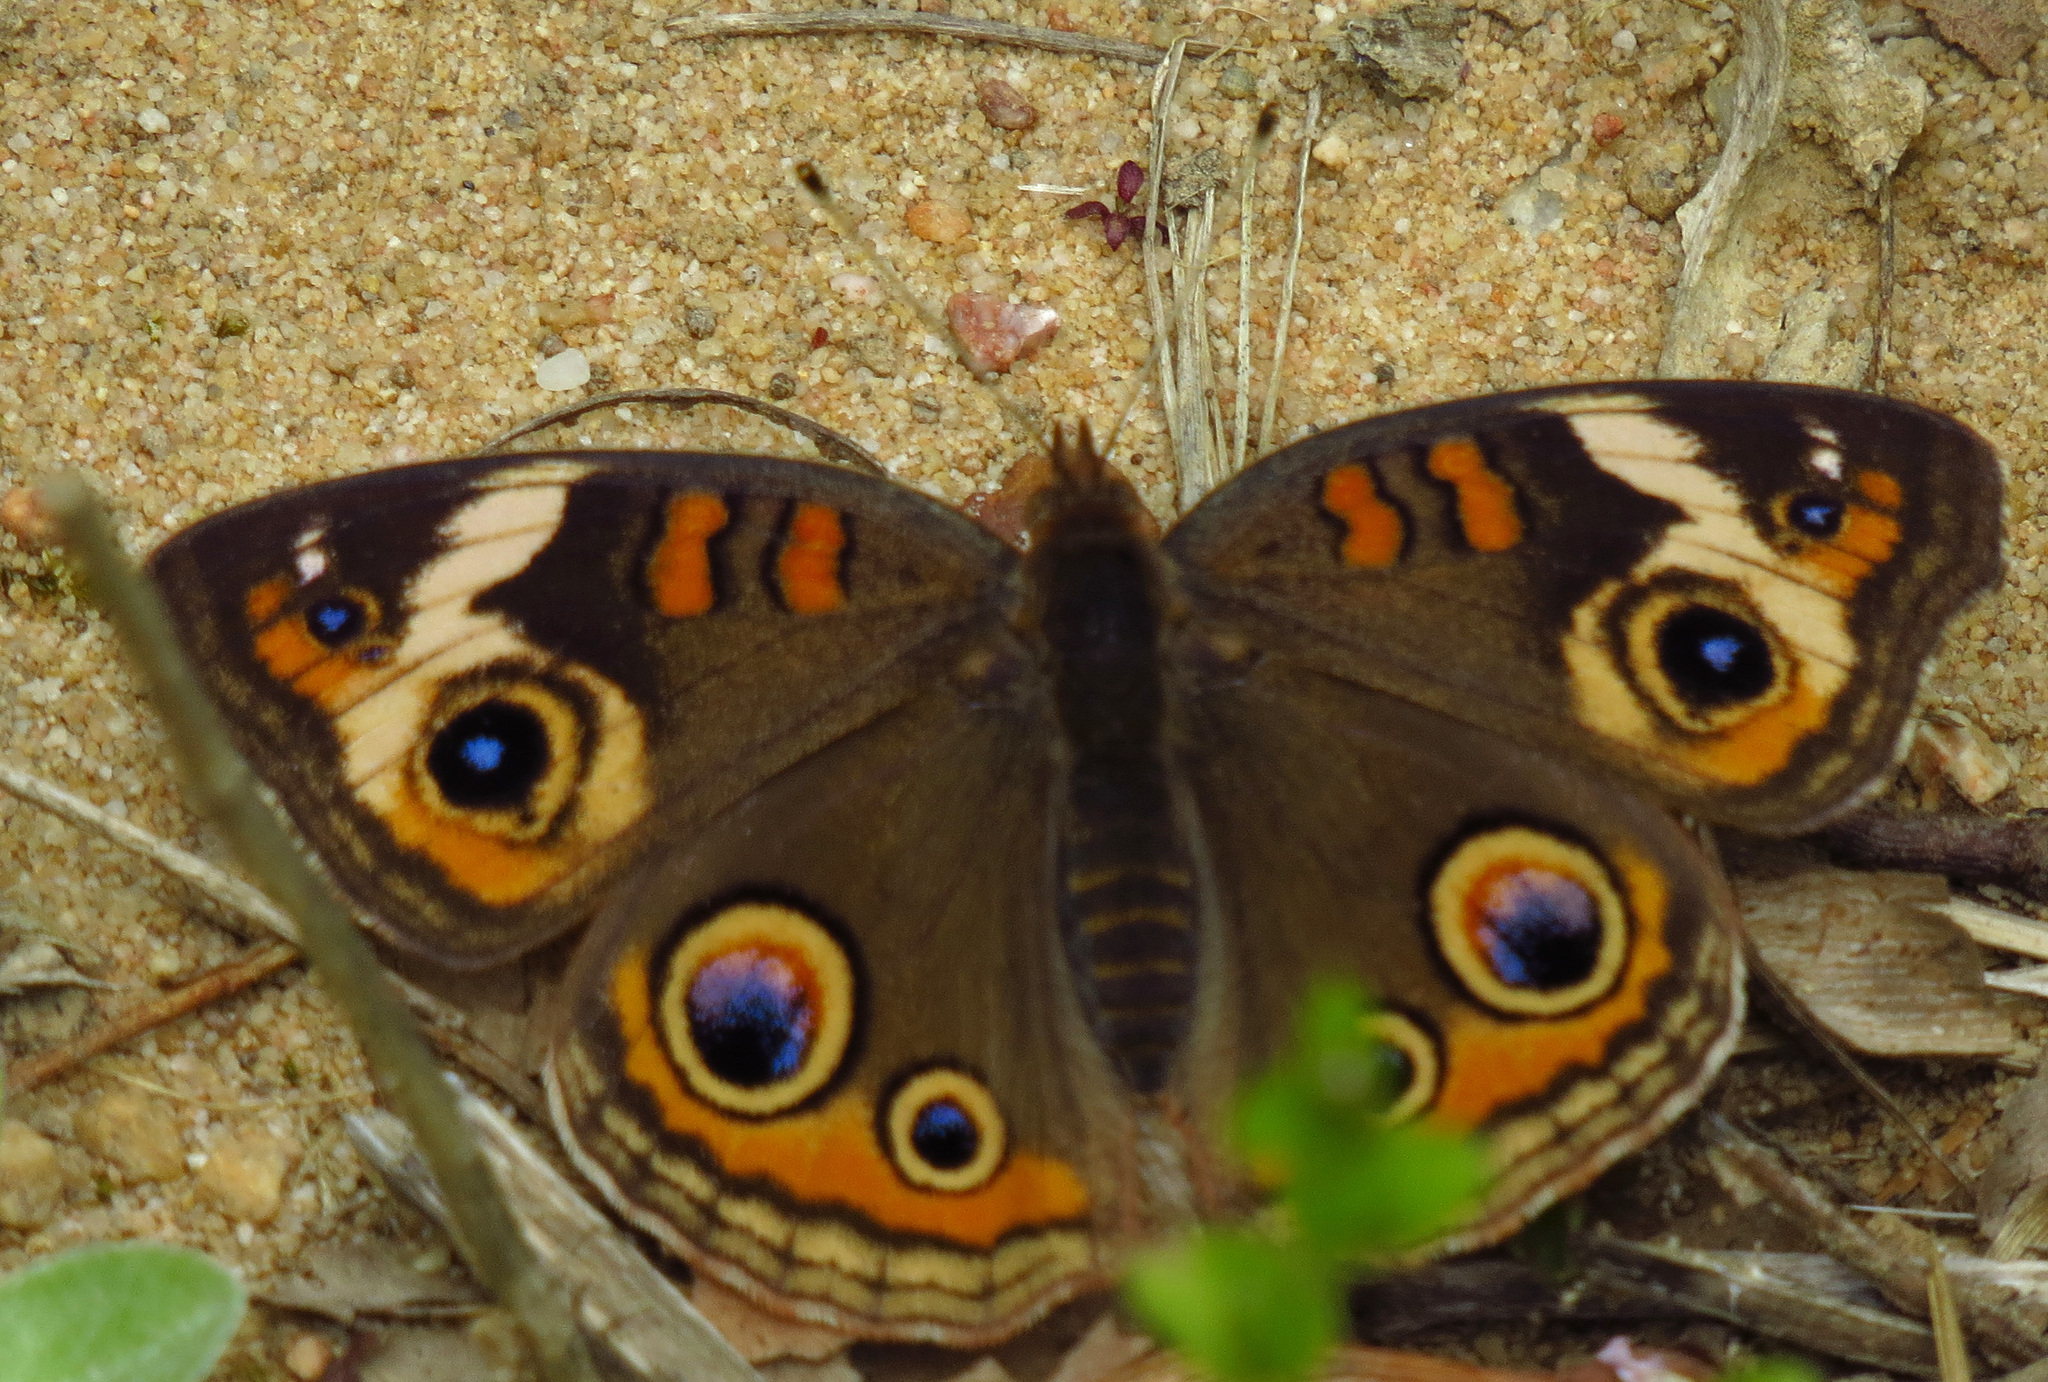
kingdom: Animalia
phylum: Arthropoda
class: Insecta
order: Lepidoptera
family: Nymphalidae
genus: Junonia
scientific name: Junonia coenia
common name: Common buckeye
